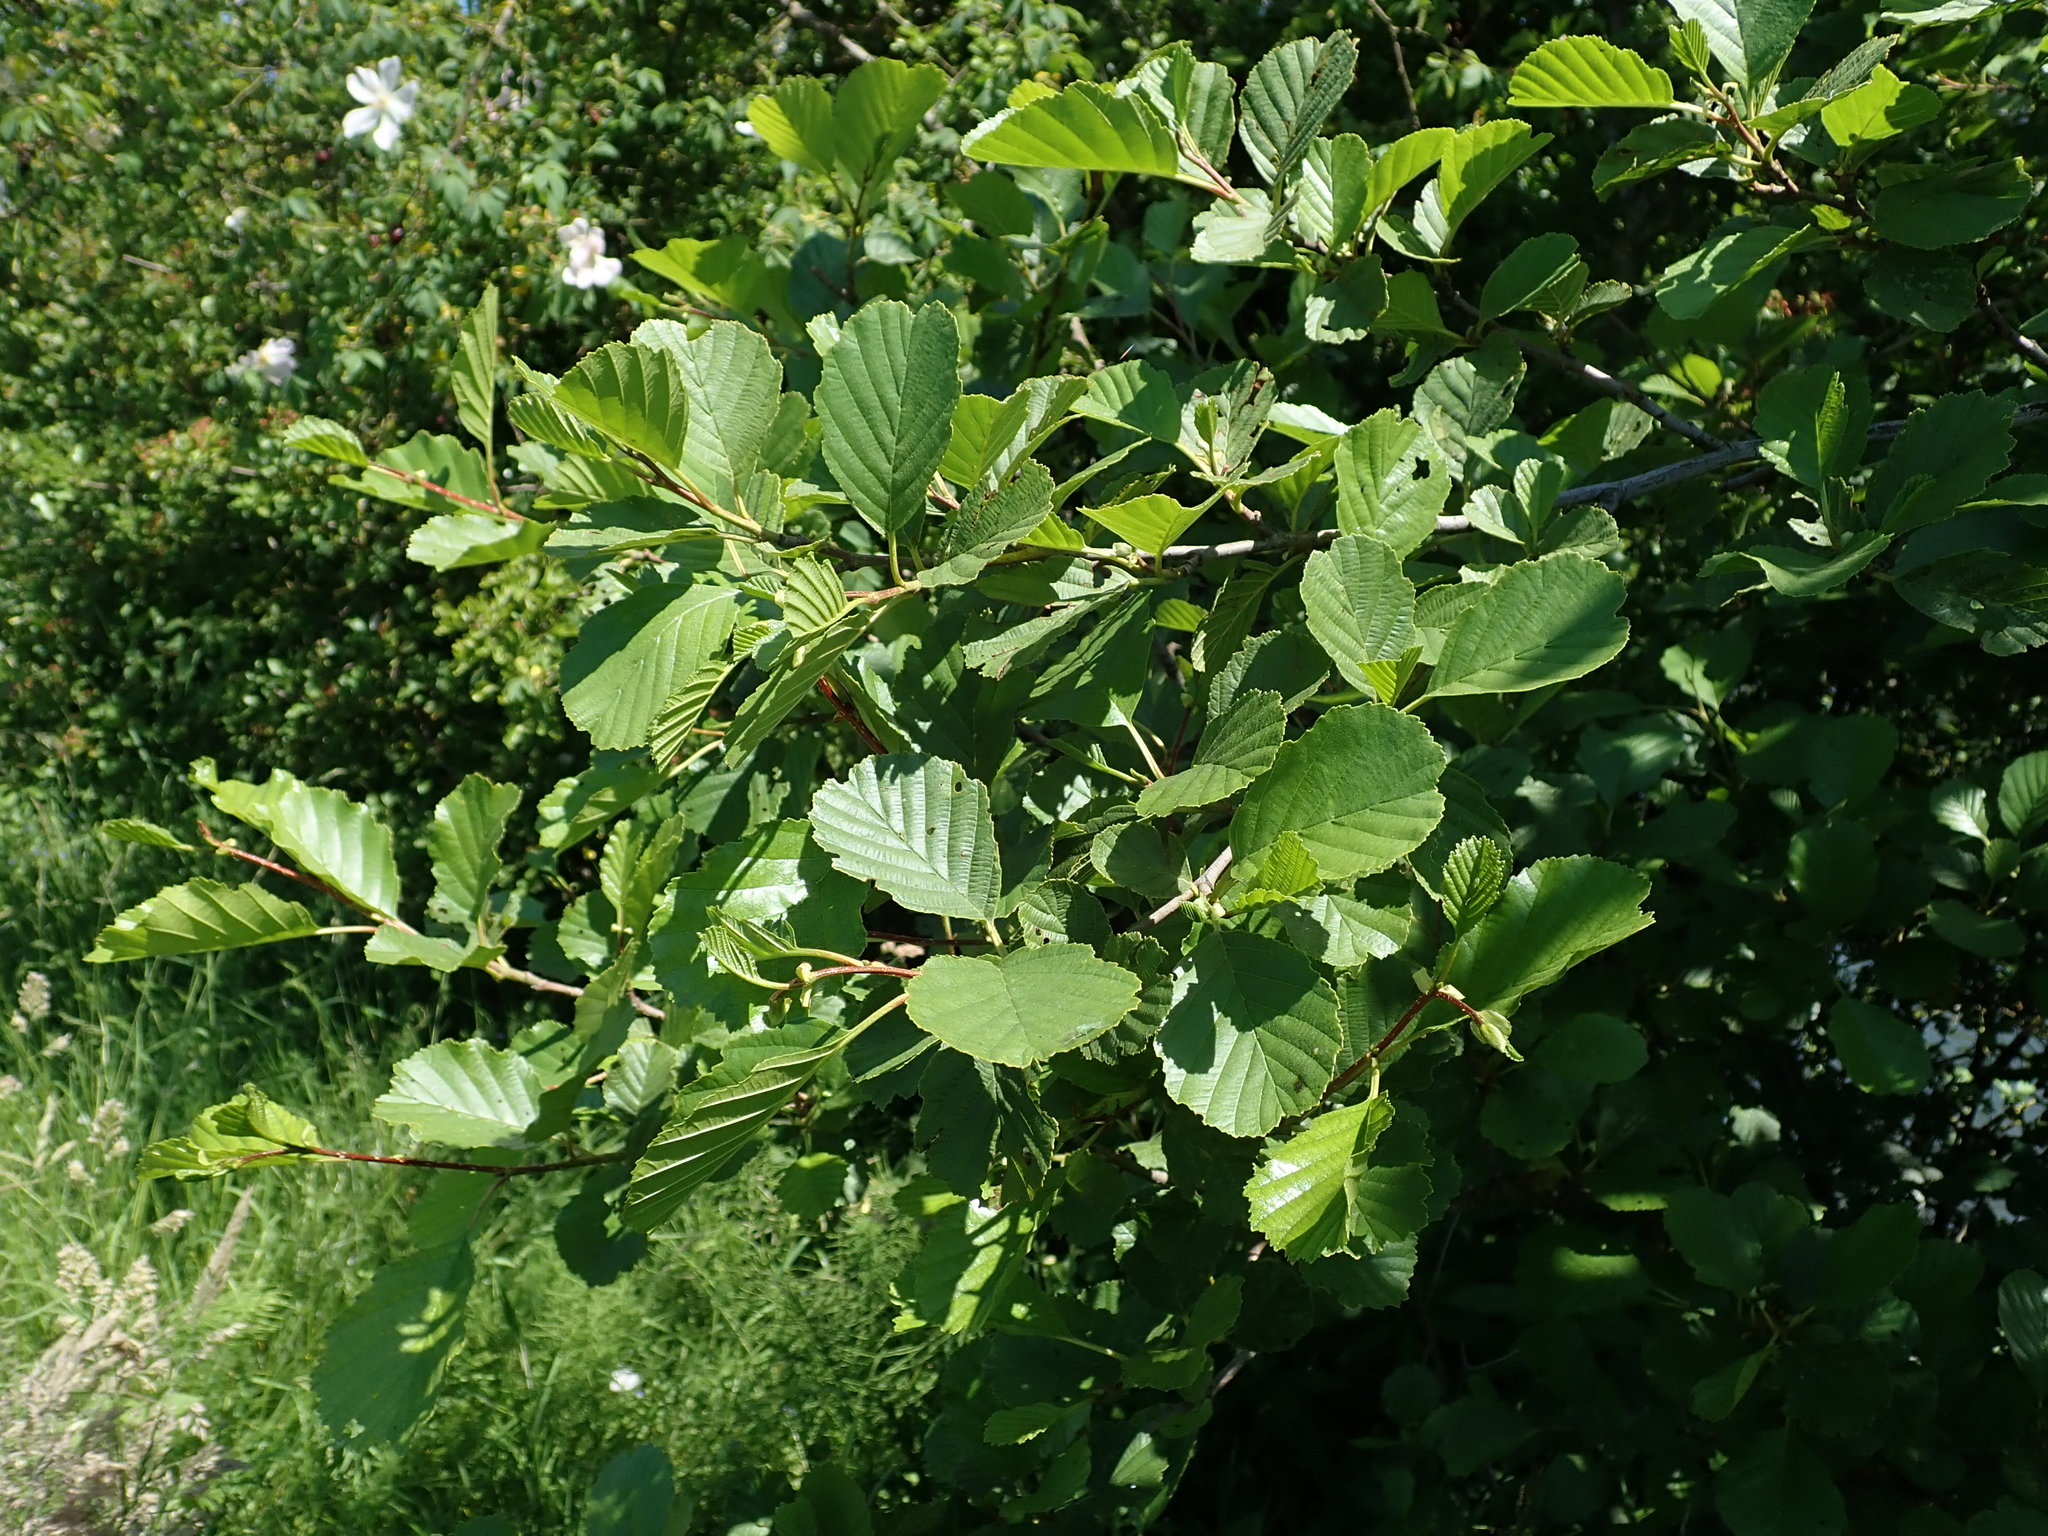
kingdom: Plantae
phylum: Tracheophyta
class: Magnoliopsida
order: Fagales
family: Betulaceae
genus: Alnus
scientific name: Alnus glutinosa
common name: Black alder
